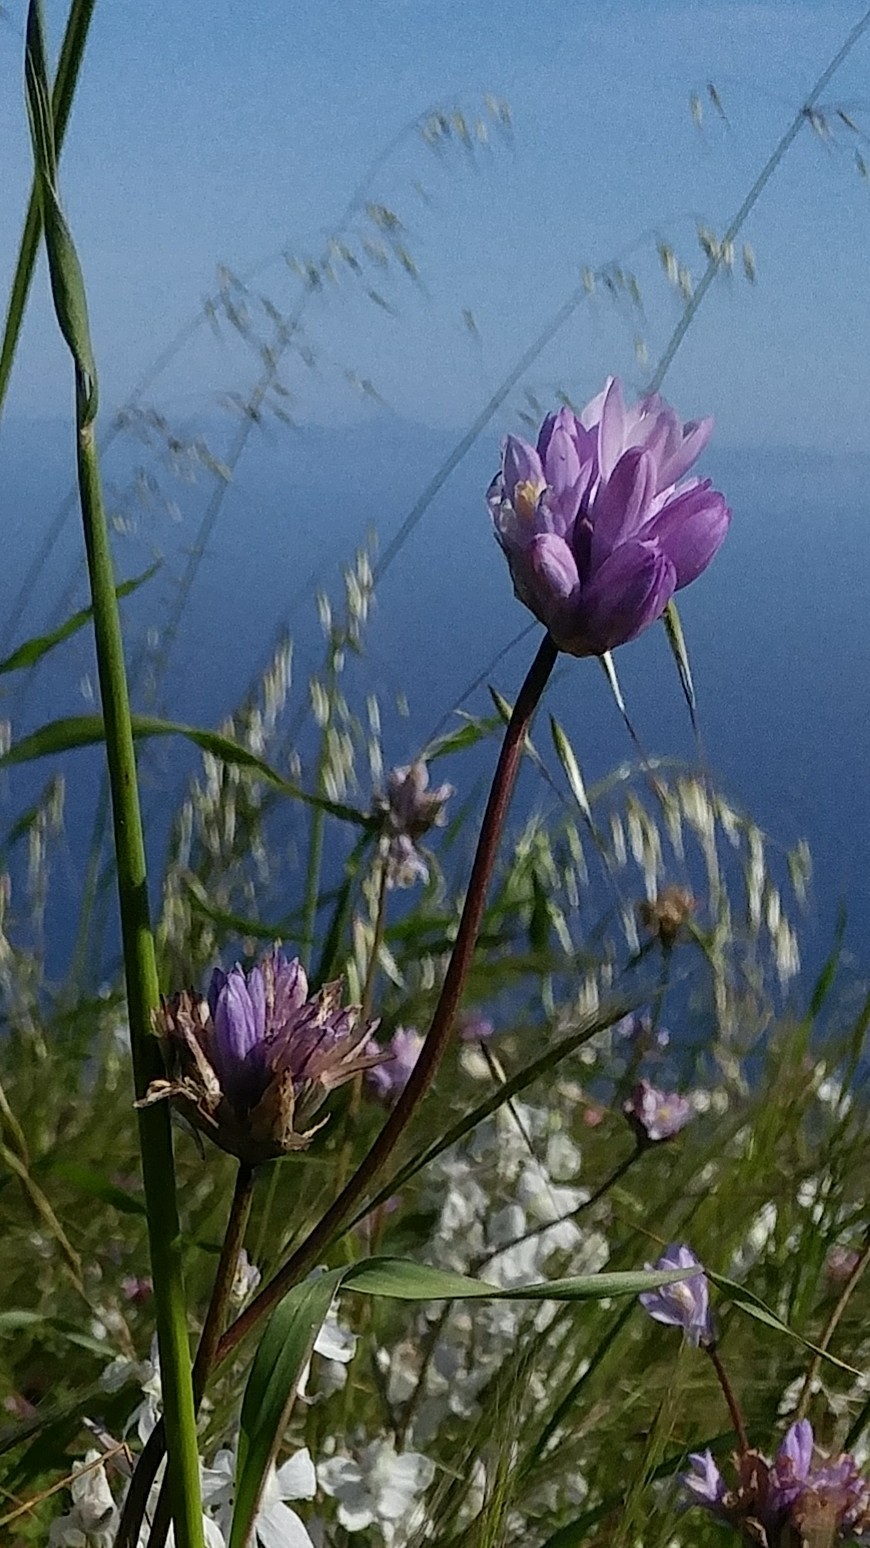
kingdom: Plantae
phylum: Tracheophyta
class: Liliopsida
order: Asparagales
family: Asparagaceae
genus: Dipterostemon
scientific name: Dipterostemon capitatus
